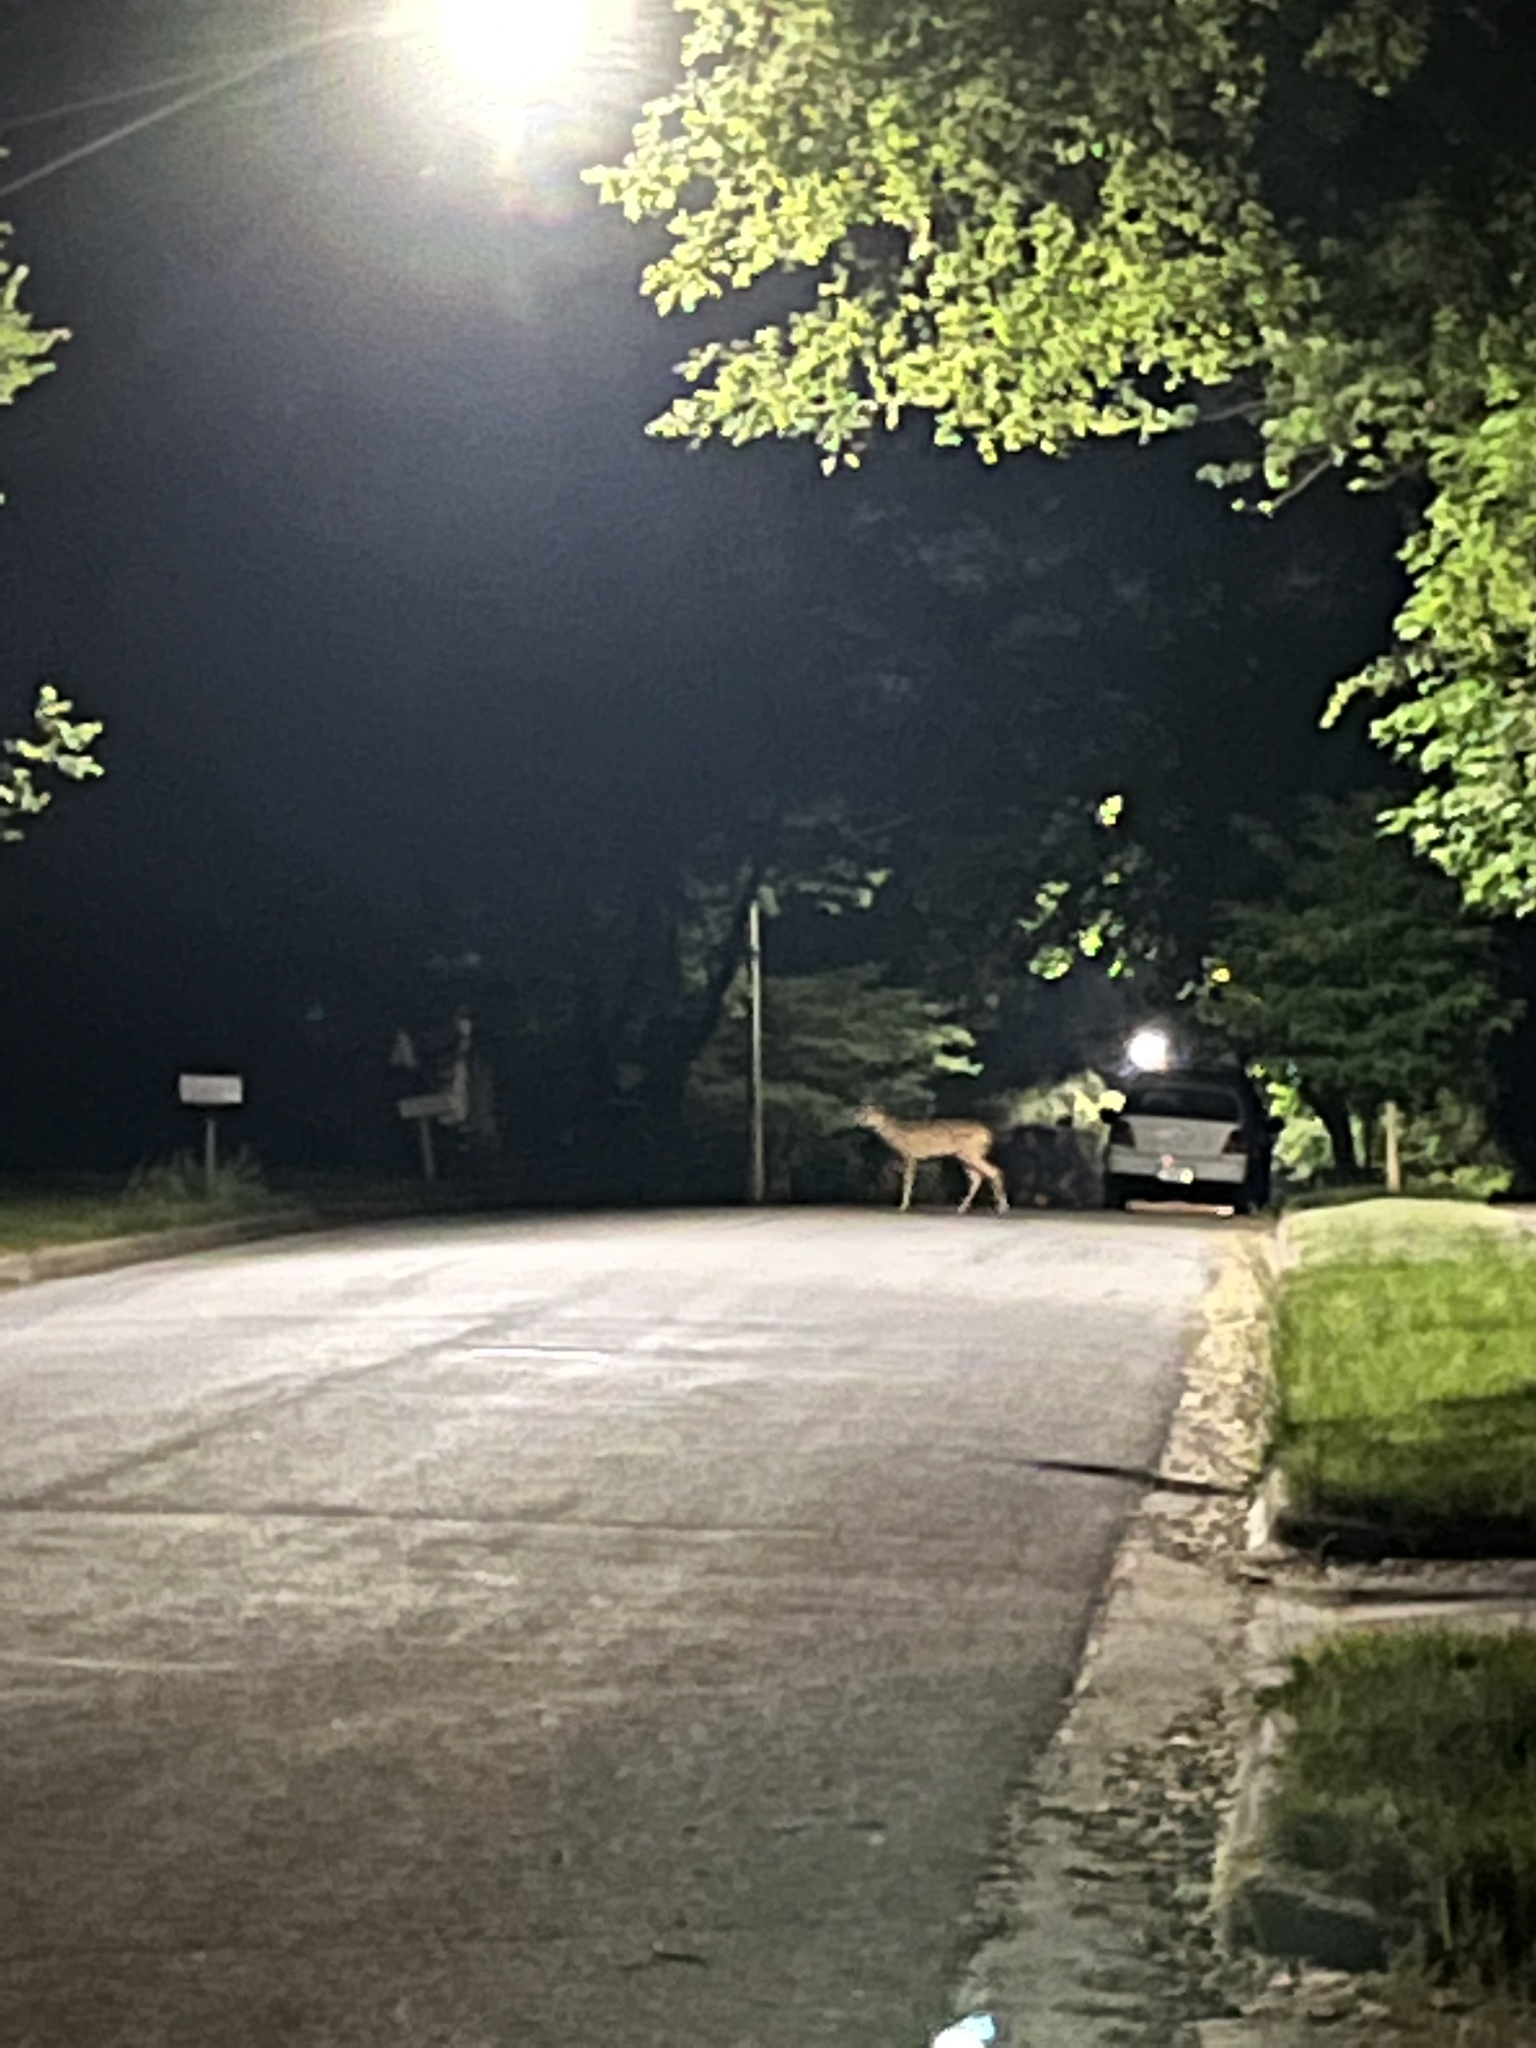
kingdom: Animalia
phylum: Chordata
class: Mammalia
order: Artiodactyla
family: Cervidae
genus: Odocoileus
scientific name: Odocoileus virginianus
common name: White-tailed deer
